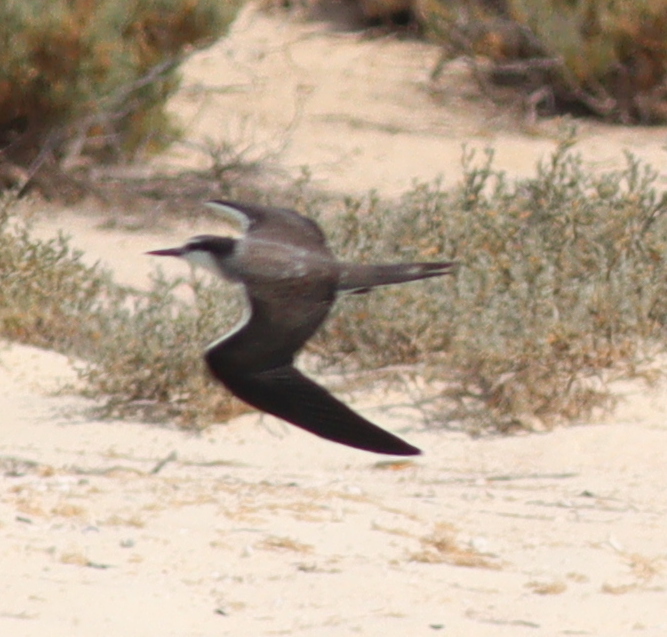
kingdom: Animalia
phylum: Chordata
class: Aves
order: Charadriiformes
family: Laridae
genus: Onychoprion
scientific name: Onychoprion anaethetus
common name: Bridled tern
